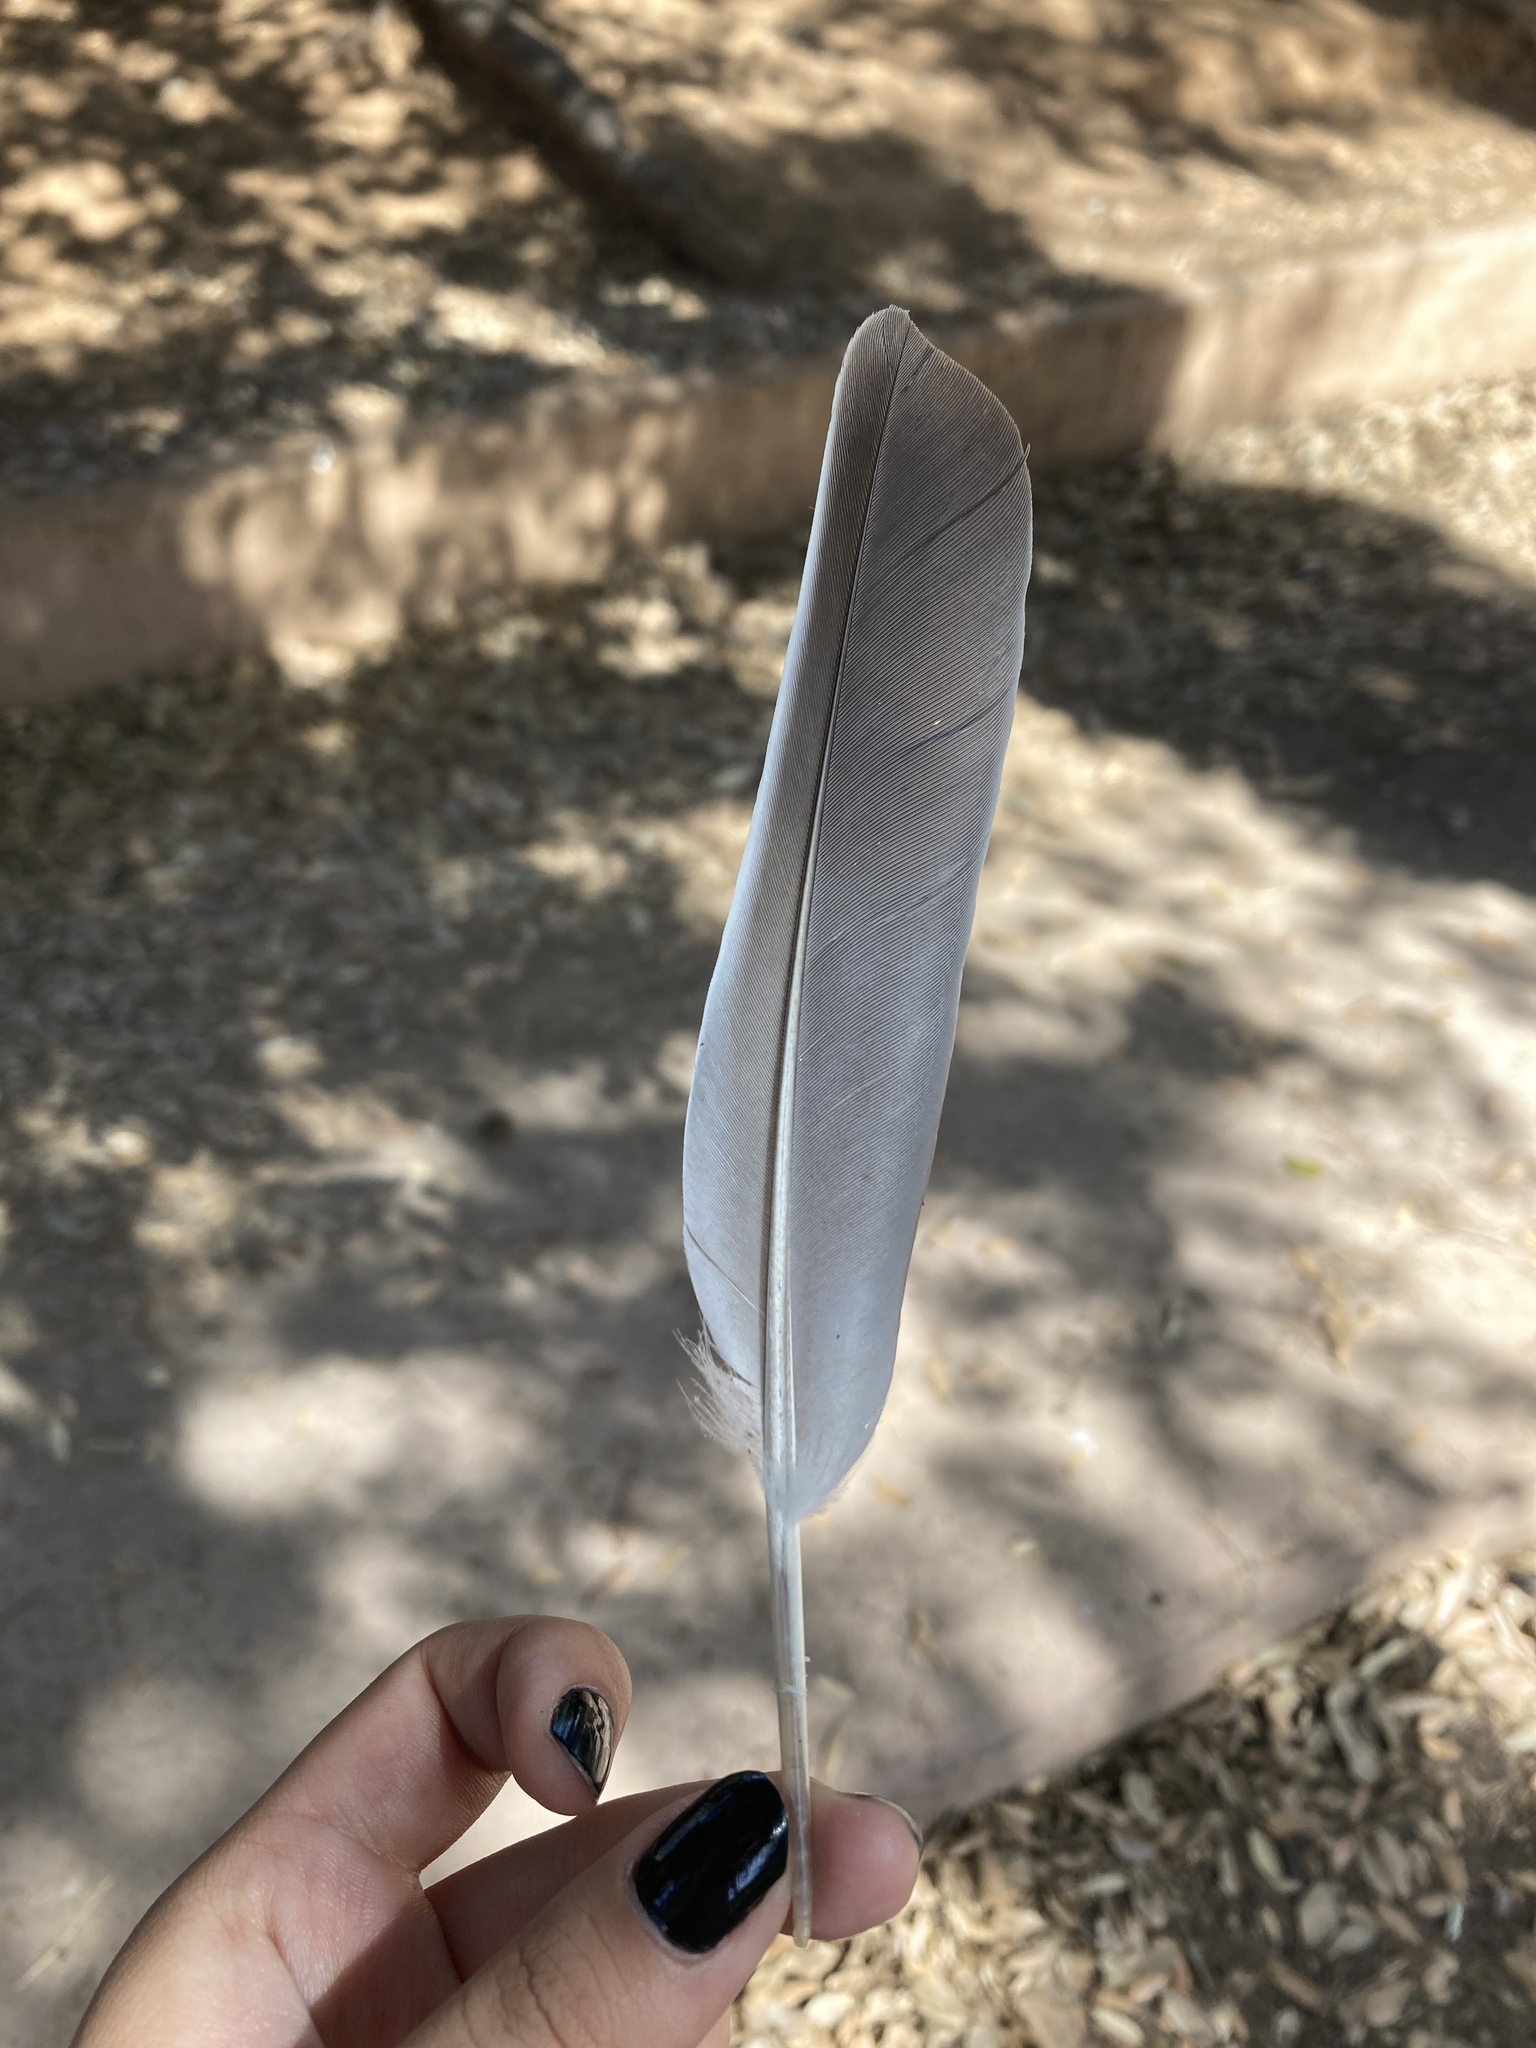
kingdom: Animalia
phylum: Chordata
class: Aves
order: Columbiformes
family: Columbidae
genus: Columba
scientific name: Columba palumbus
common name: Common wood pigeon
